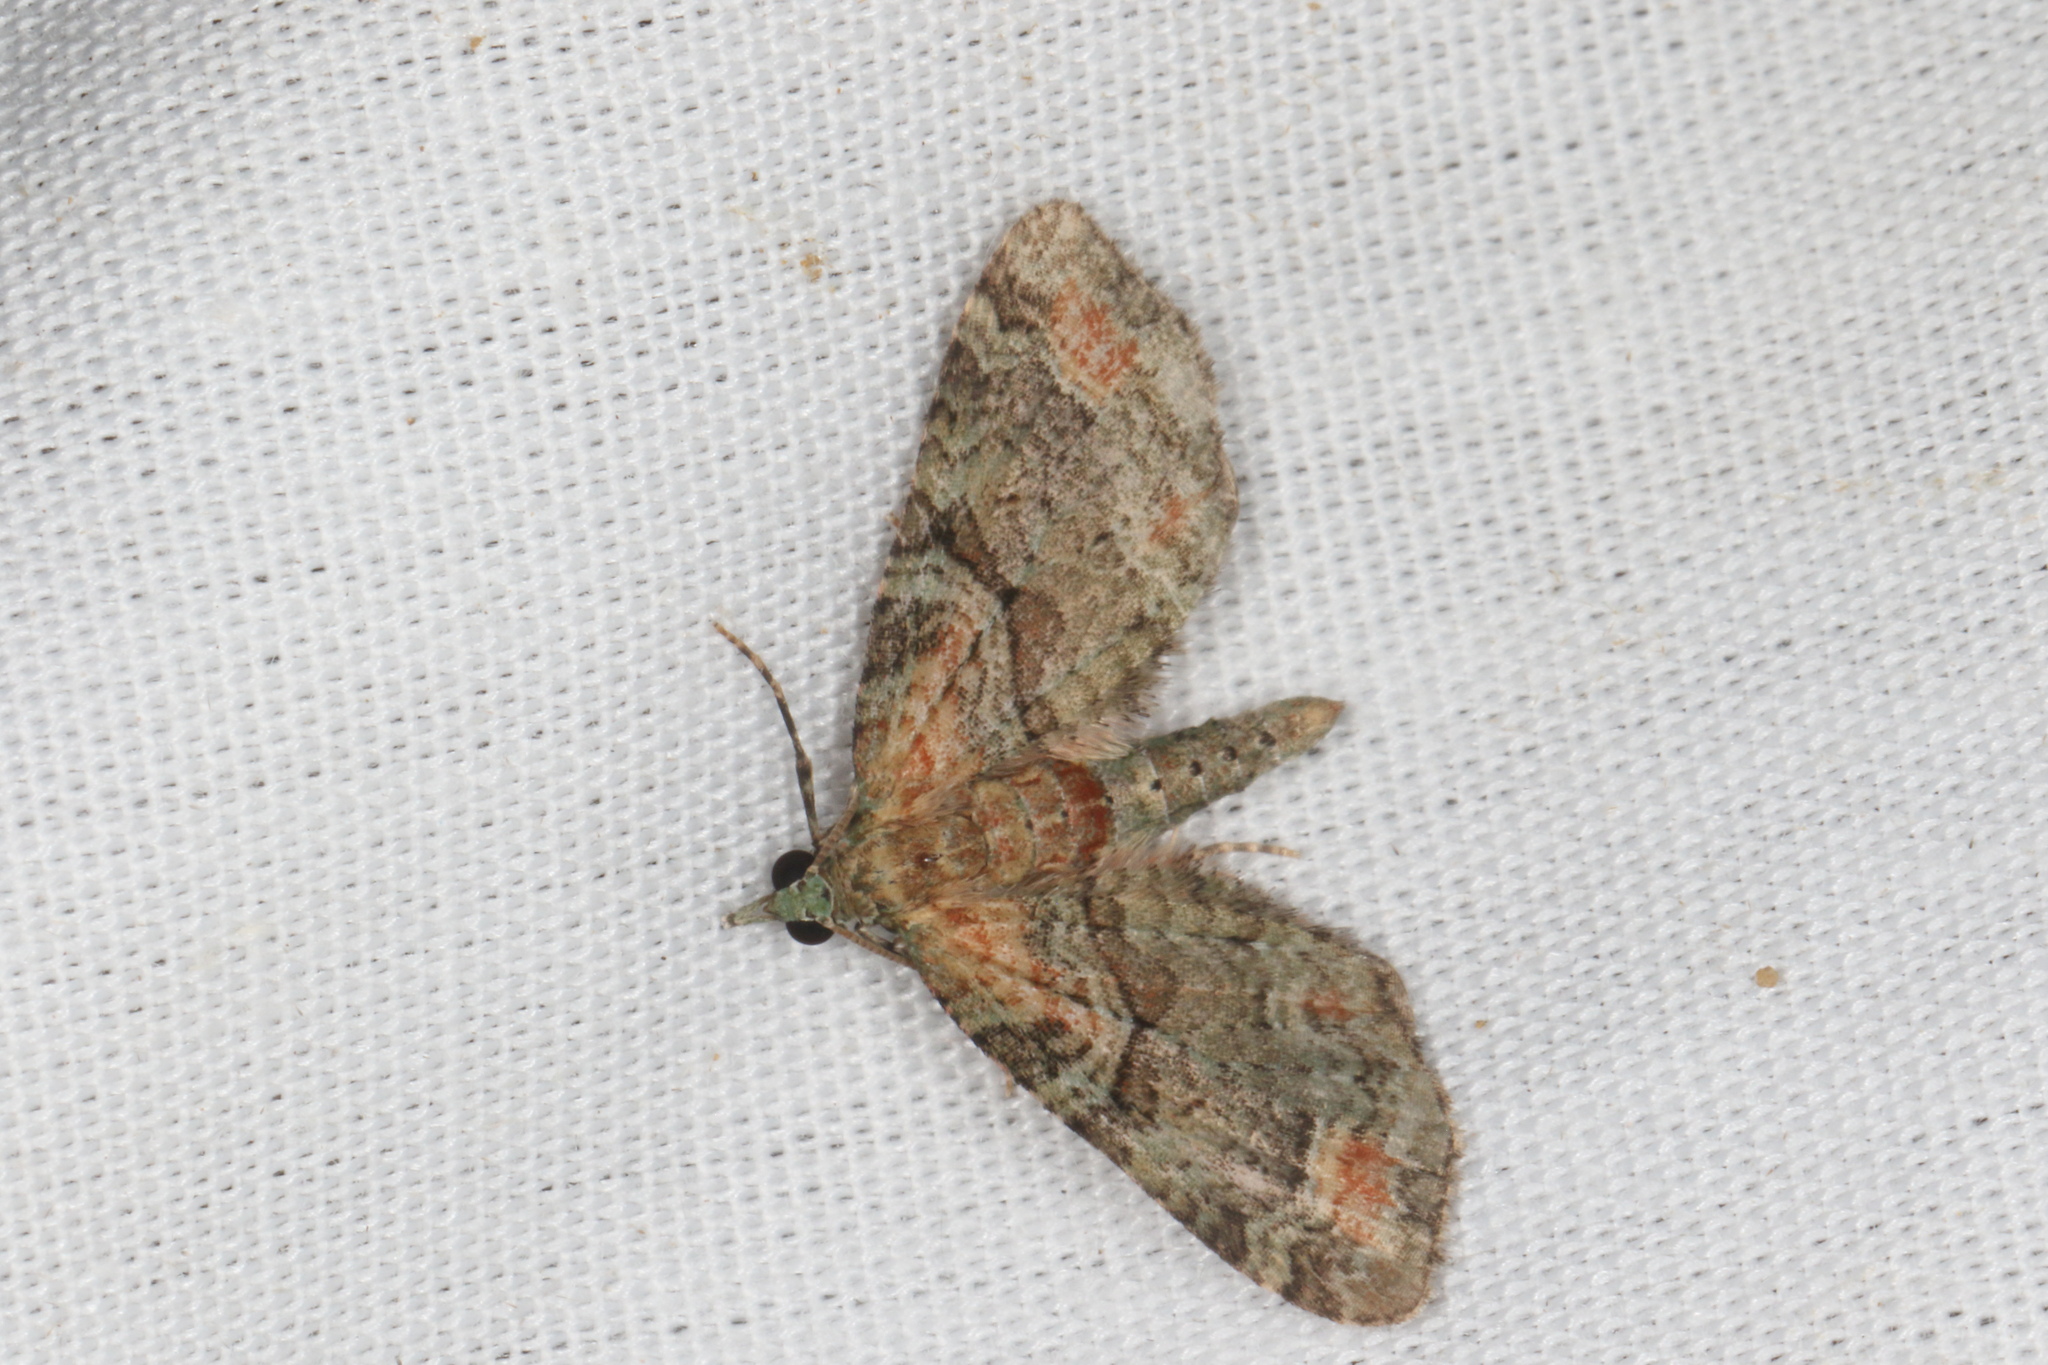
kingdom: Animalia
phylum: Arthropoda
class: Insecta
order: Lepidoptera
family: Geometridae
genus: Idaea
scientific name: Idaea mutanda
